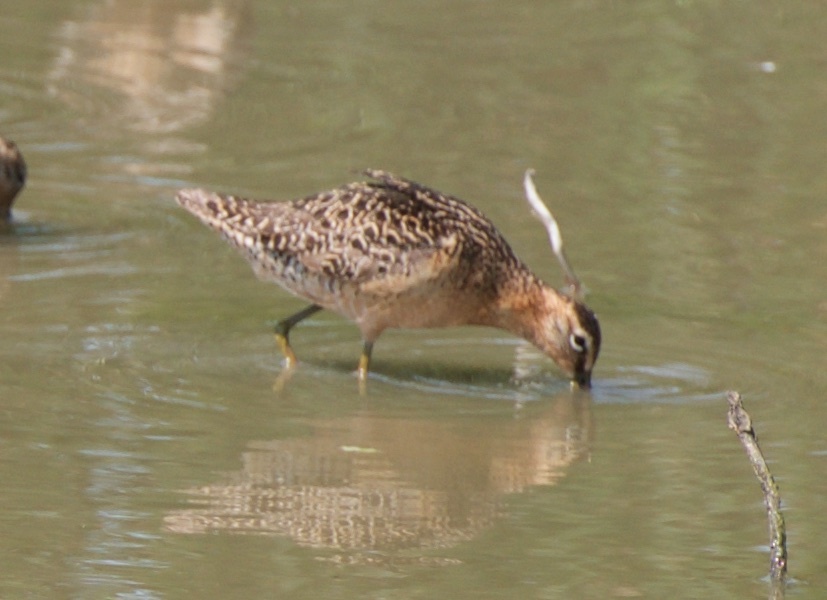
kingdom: Animalia
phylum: Chordata
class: Aves
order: Charadriiformes
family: Scolopacidae
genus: Limnodromus
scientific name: Limnodromus scolopaceus
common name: Long-billed dowitcher
